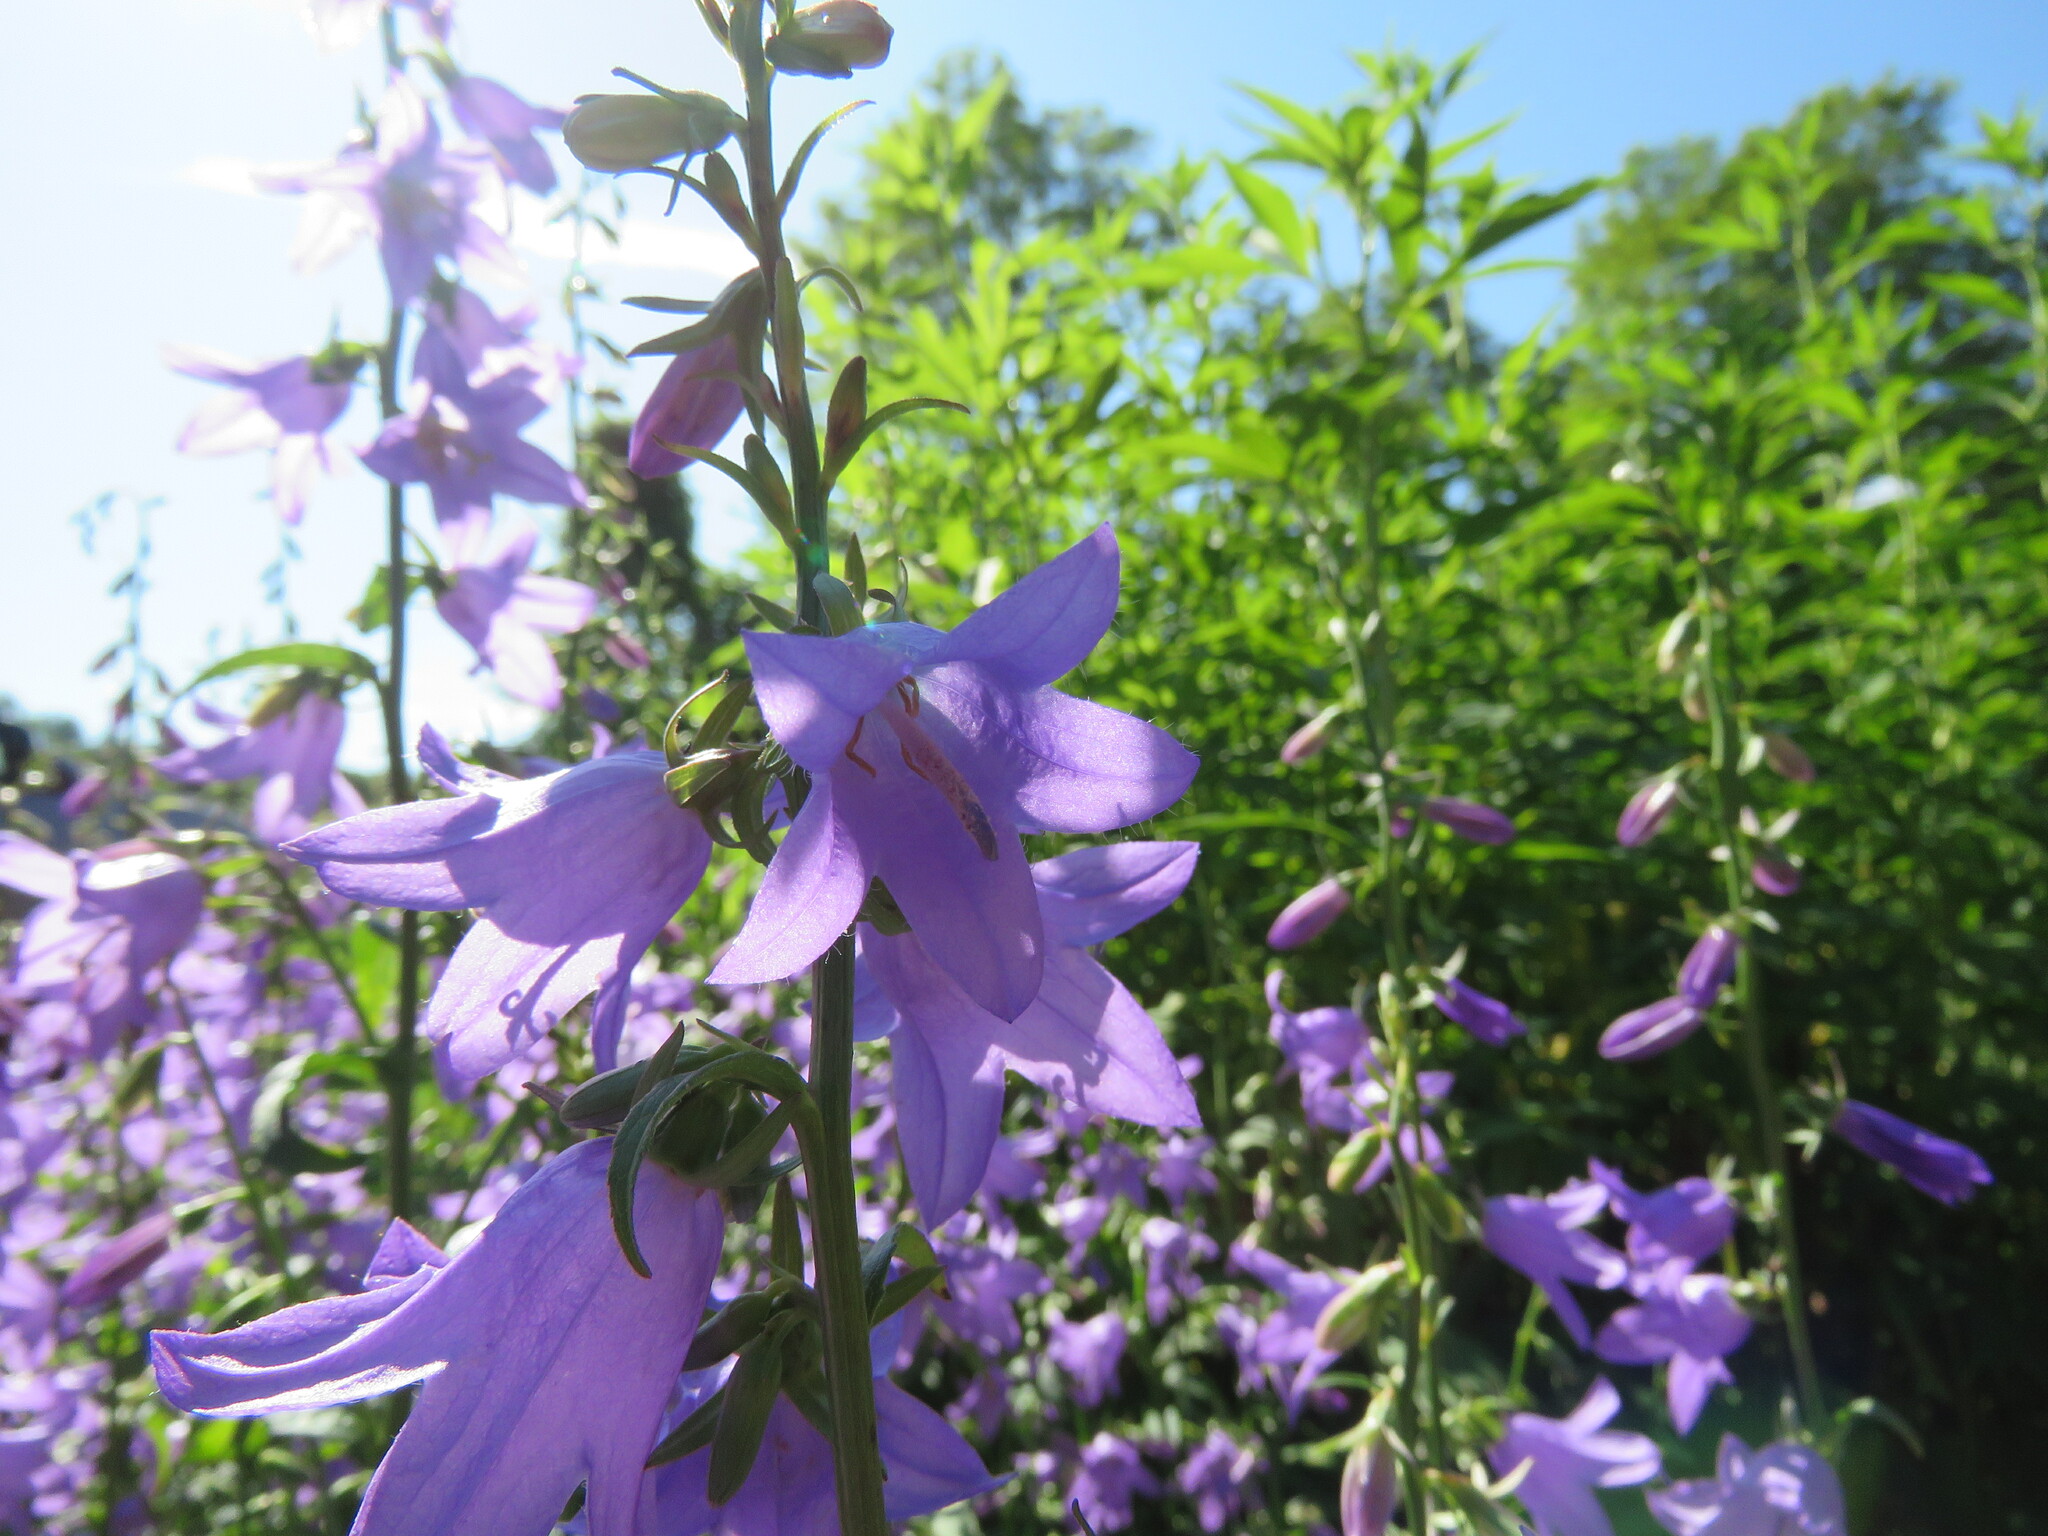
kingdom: Plantae
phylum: Tracheophyta
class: Magnoliopsida
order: Asterales
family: Campanulaceae
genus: Campanula
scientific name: Campanula rapunculoides
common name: Creeping bellflower
